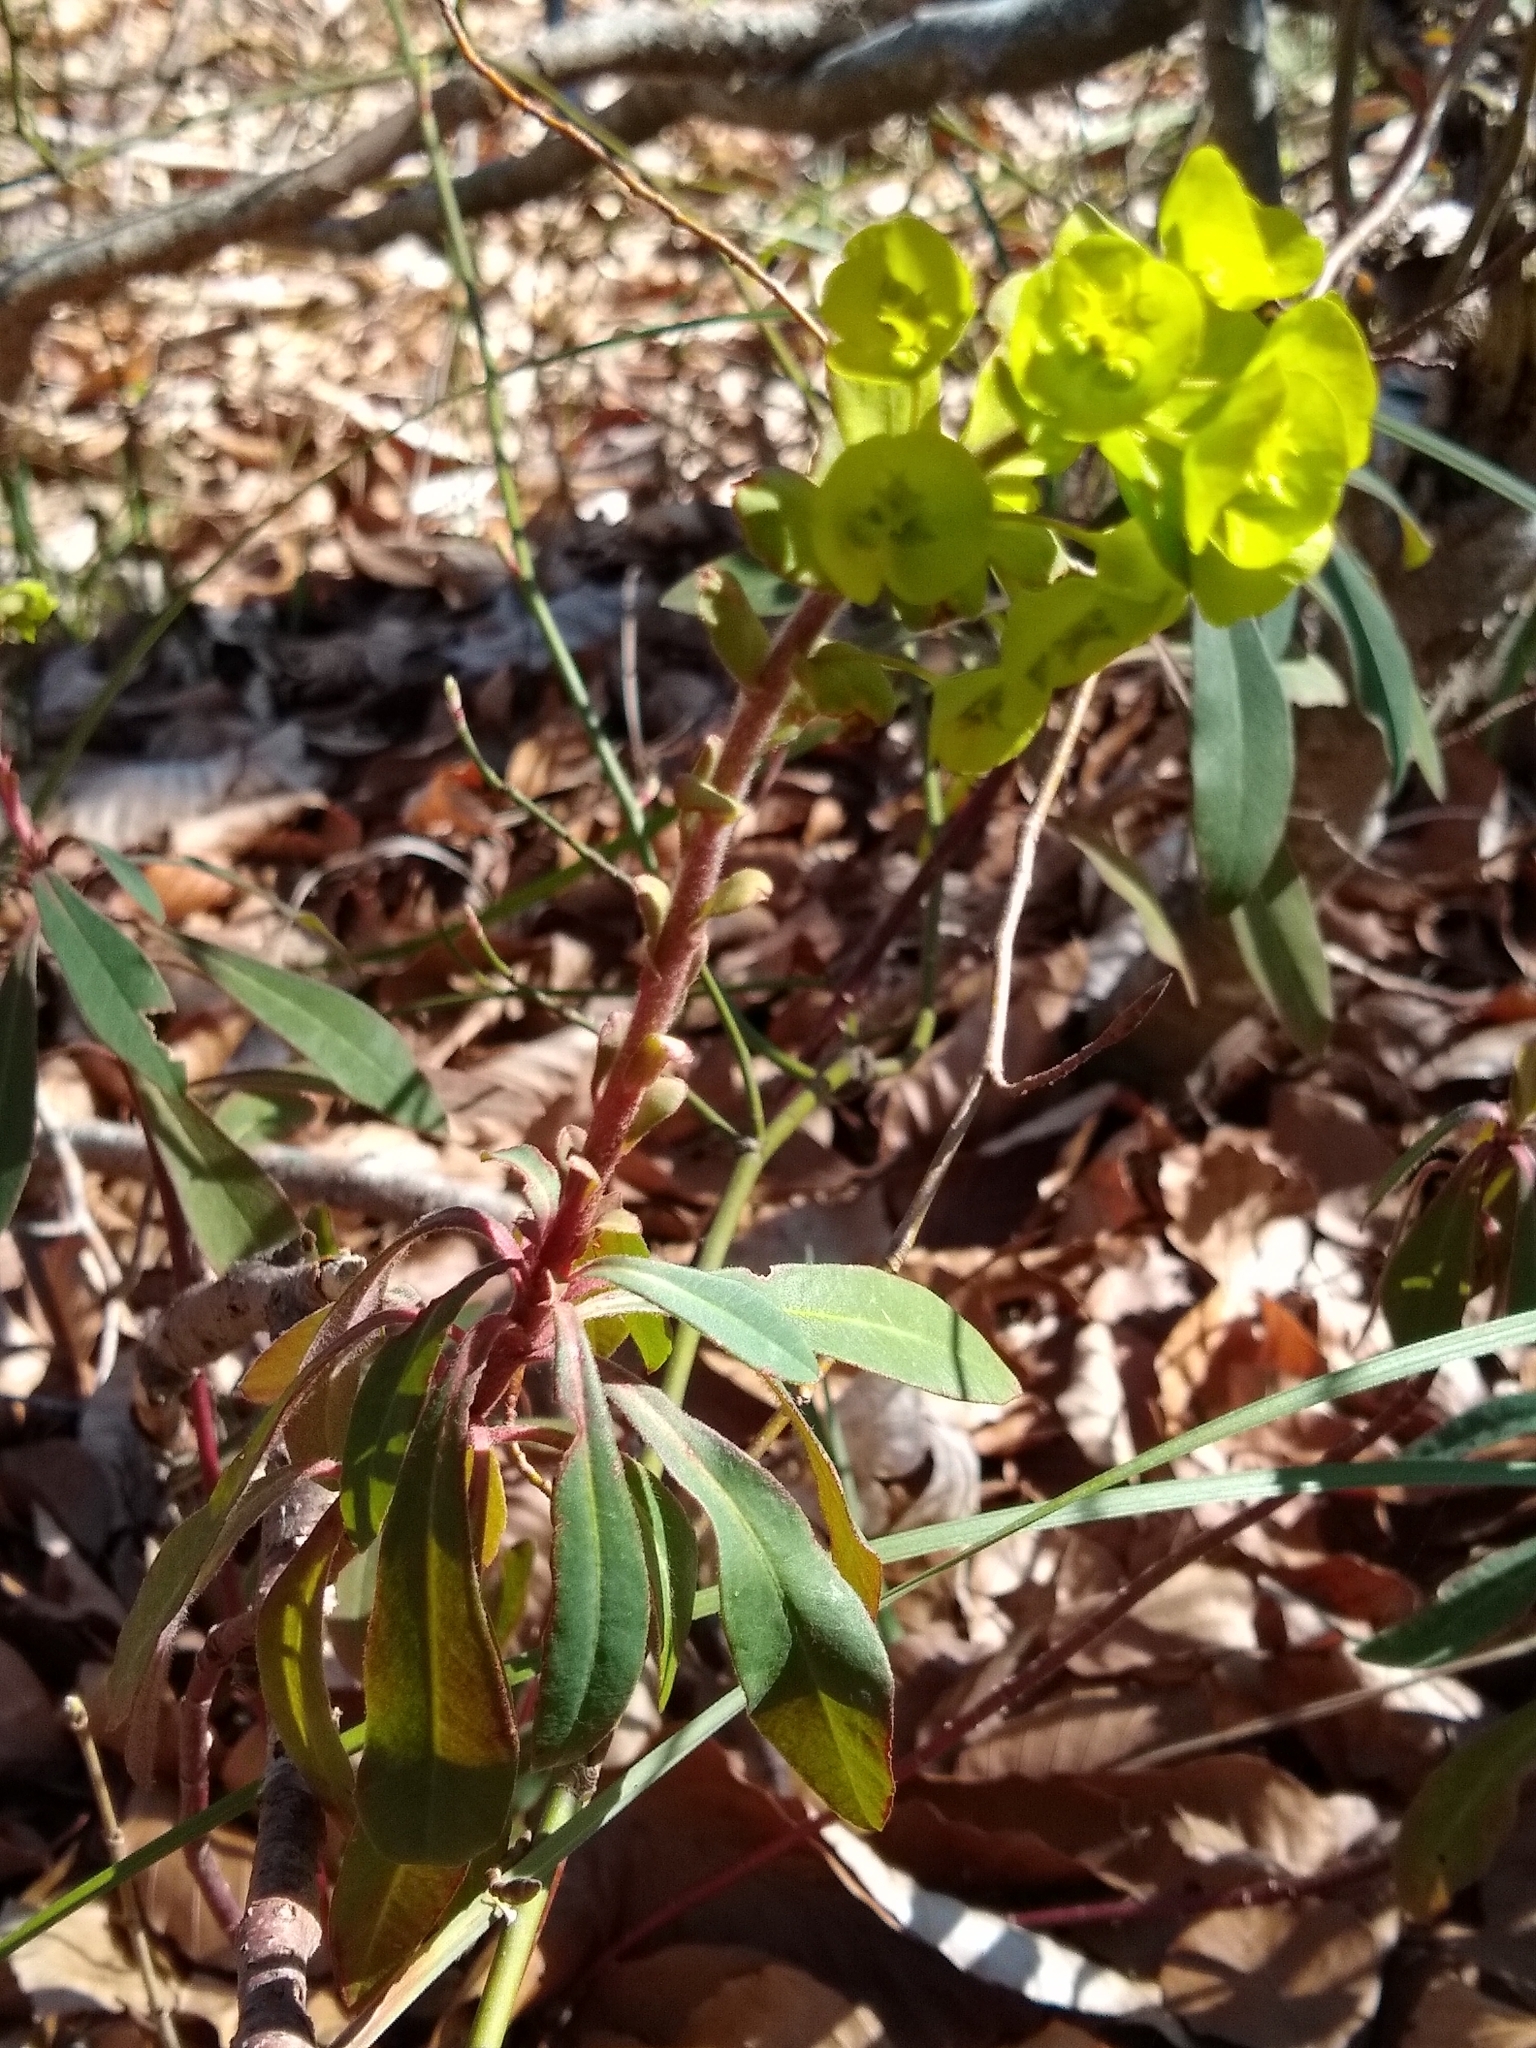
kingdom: Plantae
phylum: Tracheophyta
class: Magnoliopsida
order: Malpighiales
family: Euphorbiaceae
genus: Euphorbia
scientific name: Euphorbia amygdaloides
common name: Wood spurge
